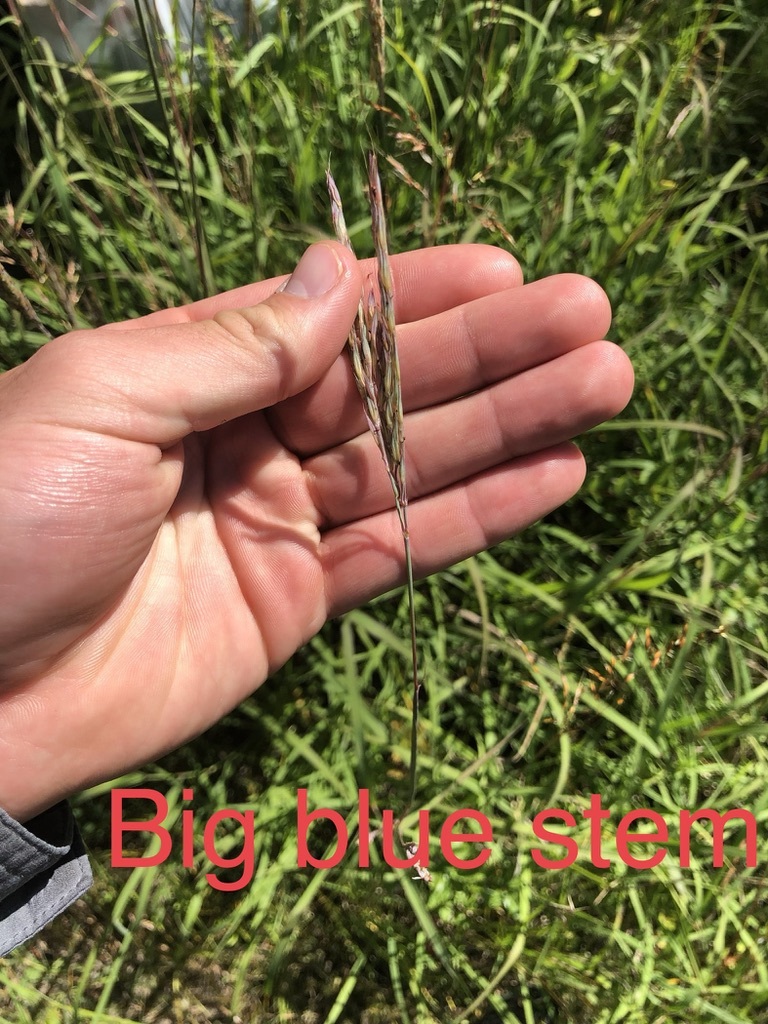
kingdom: Plantae
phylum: Tracheophyta
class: Liliopsida
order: Poales
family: Poaceae
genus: Andropogon
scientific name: Andropogon gerardi
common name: Big bluestem
